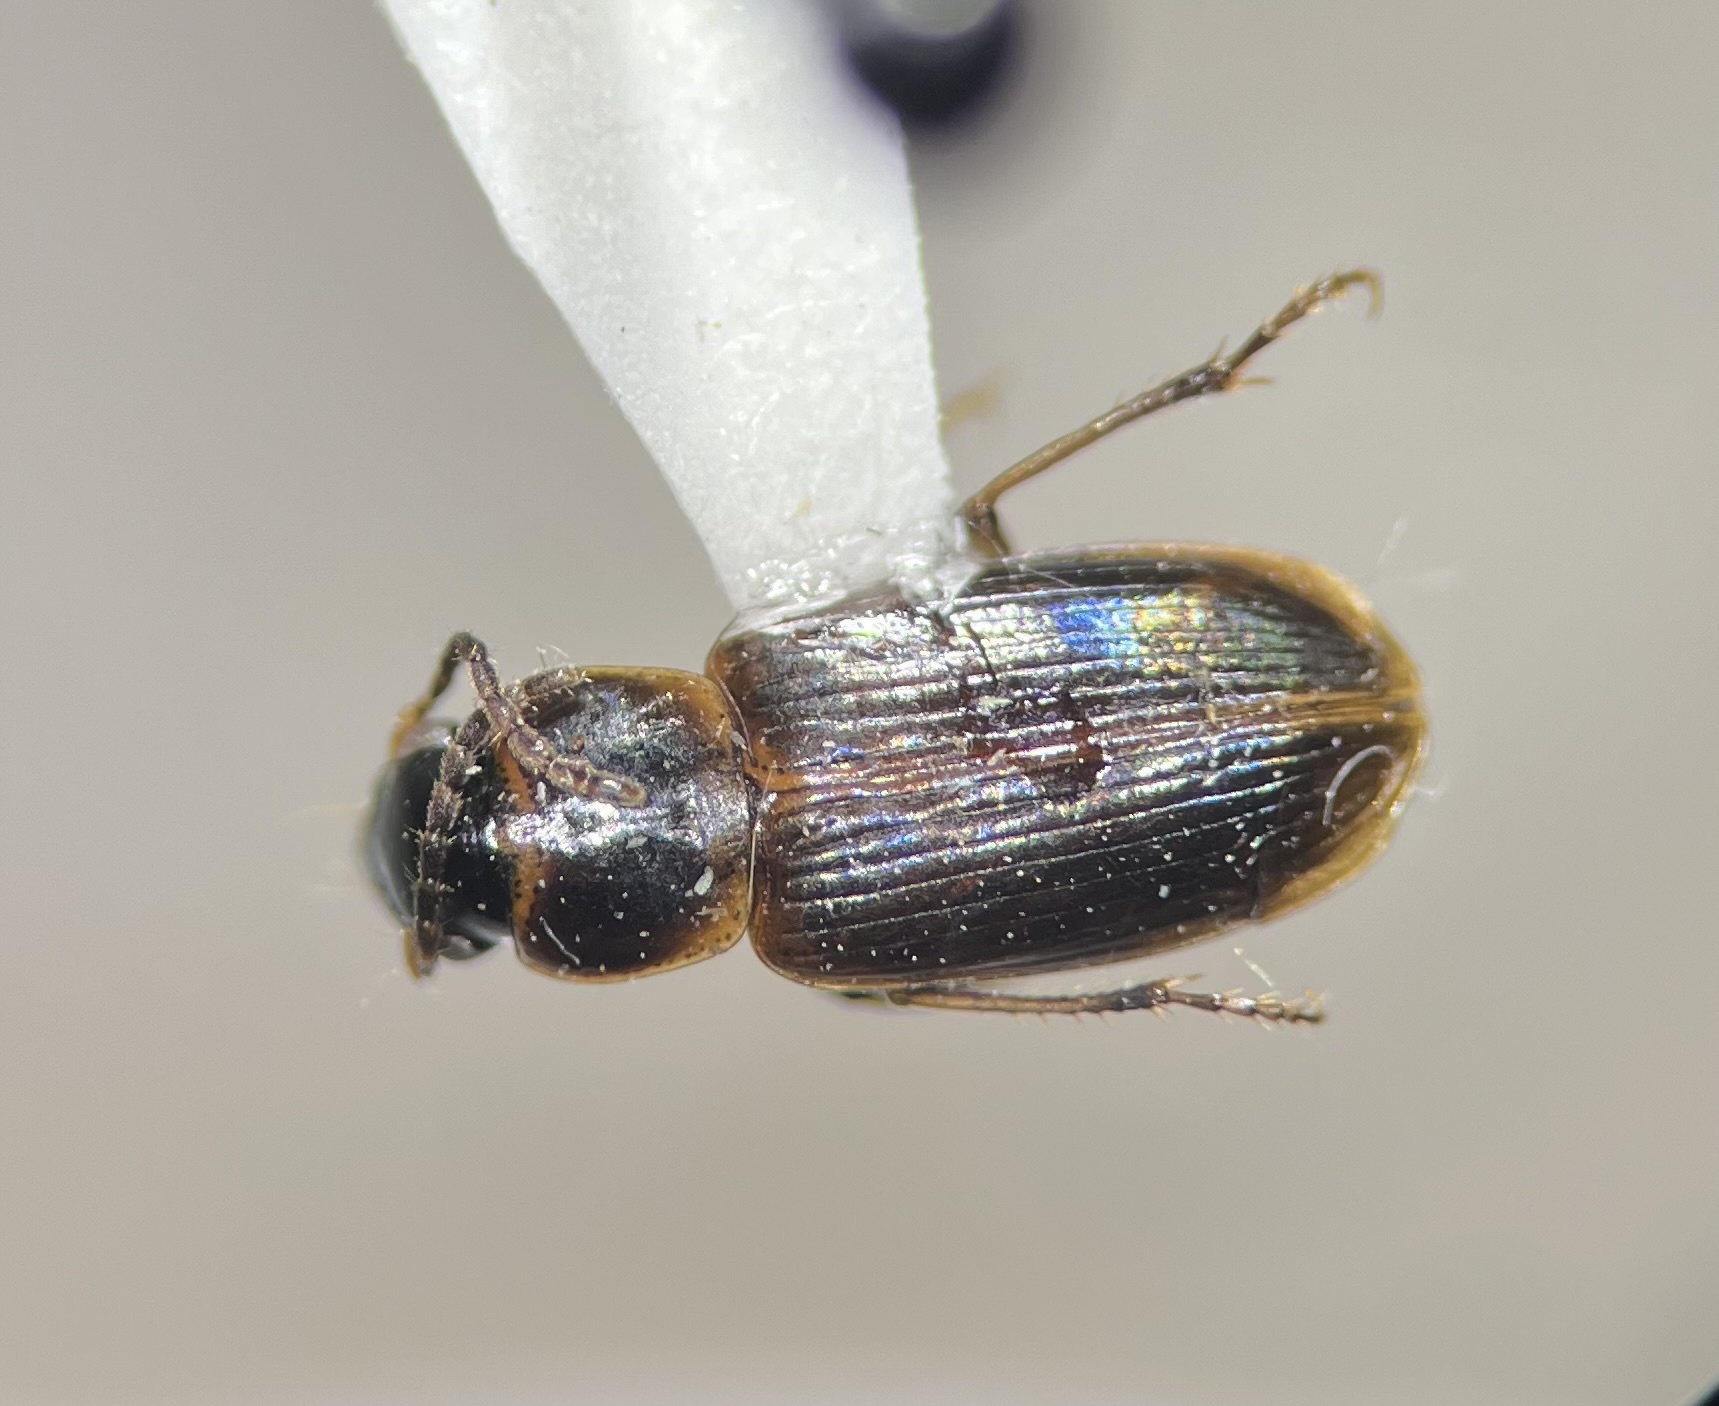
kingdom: Animalia
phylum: Arthropoda
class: Insecta
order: Coleoptera
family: Carabidae
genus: Stenolophus
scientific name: Stenolophus anceps
